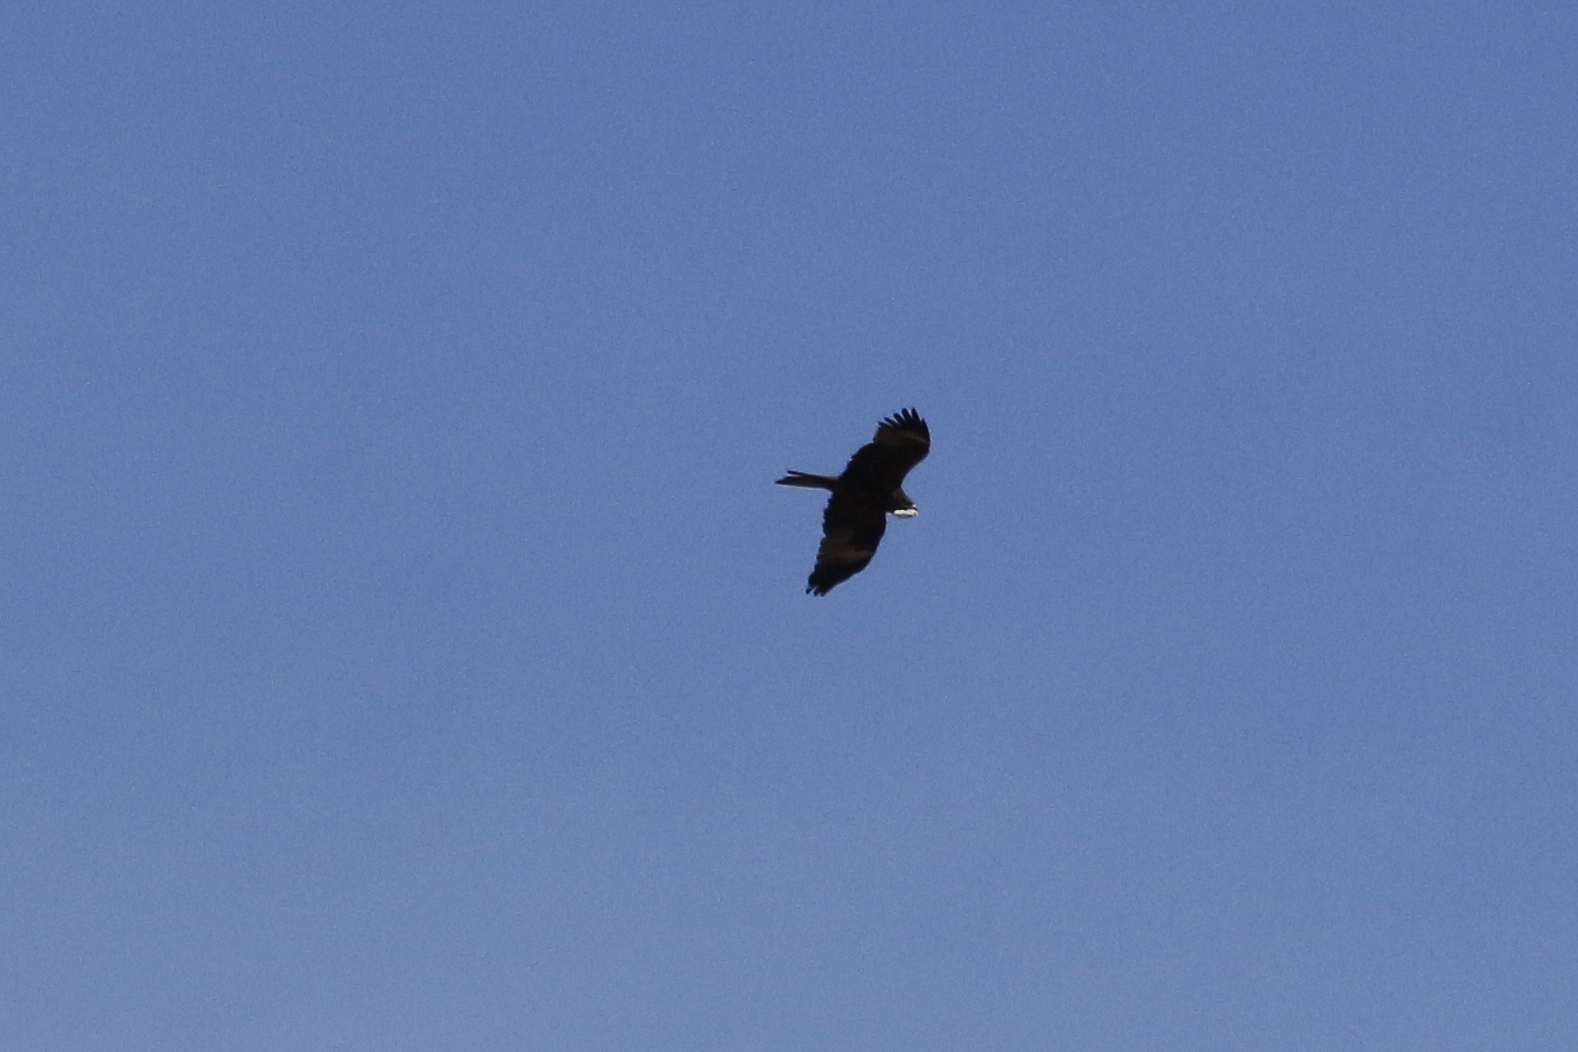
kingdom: Animalia
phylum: Chordata
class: Aves
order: Accipitriformes
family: Accipitridae
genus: Milvus
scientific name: Milvus migrans
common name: Black kite
